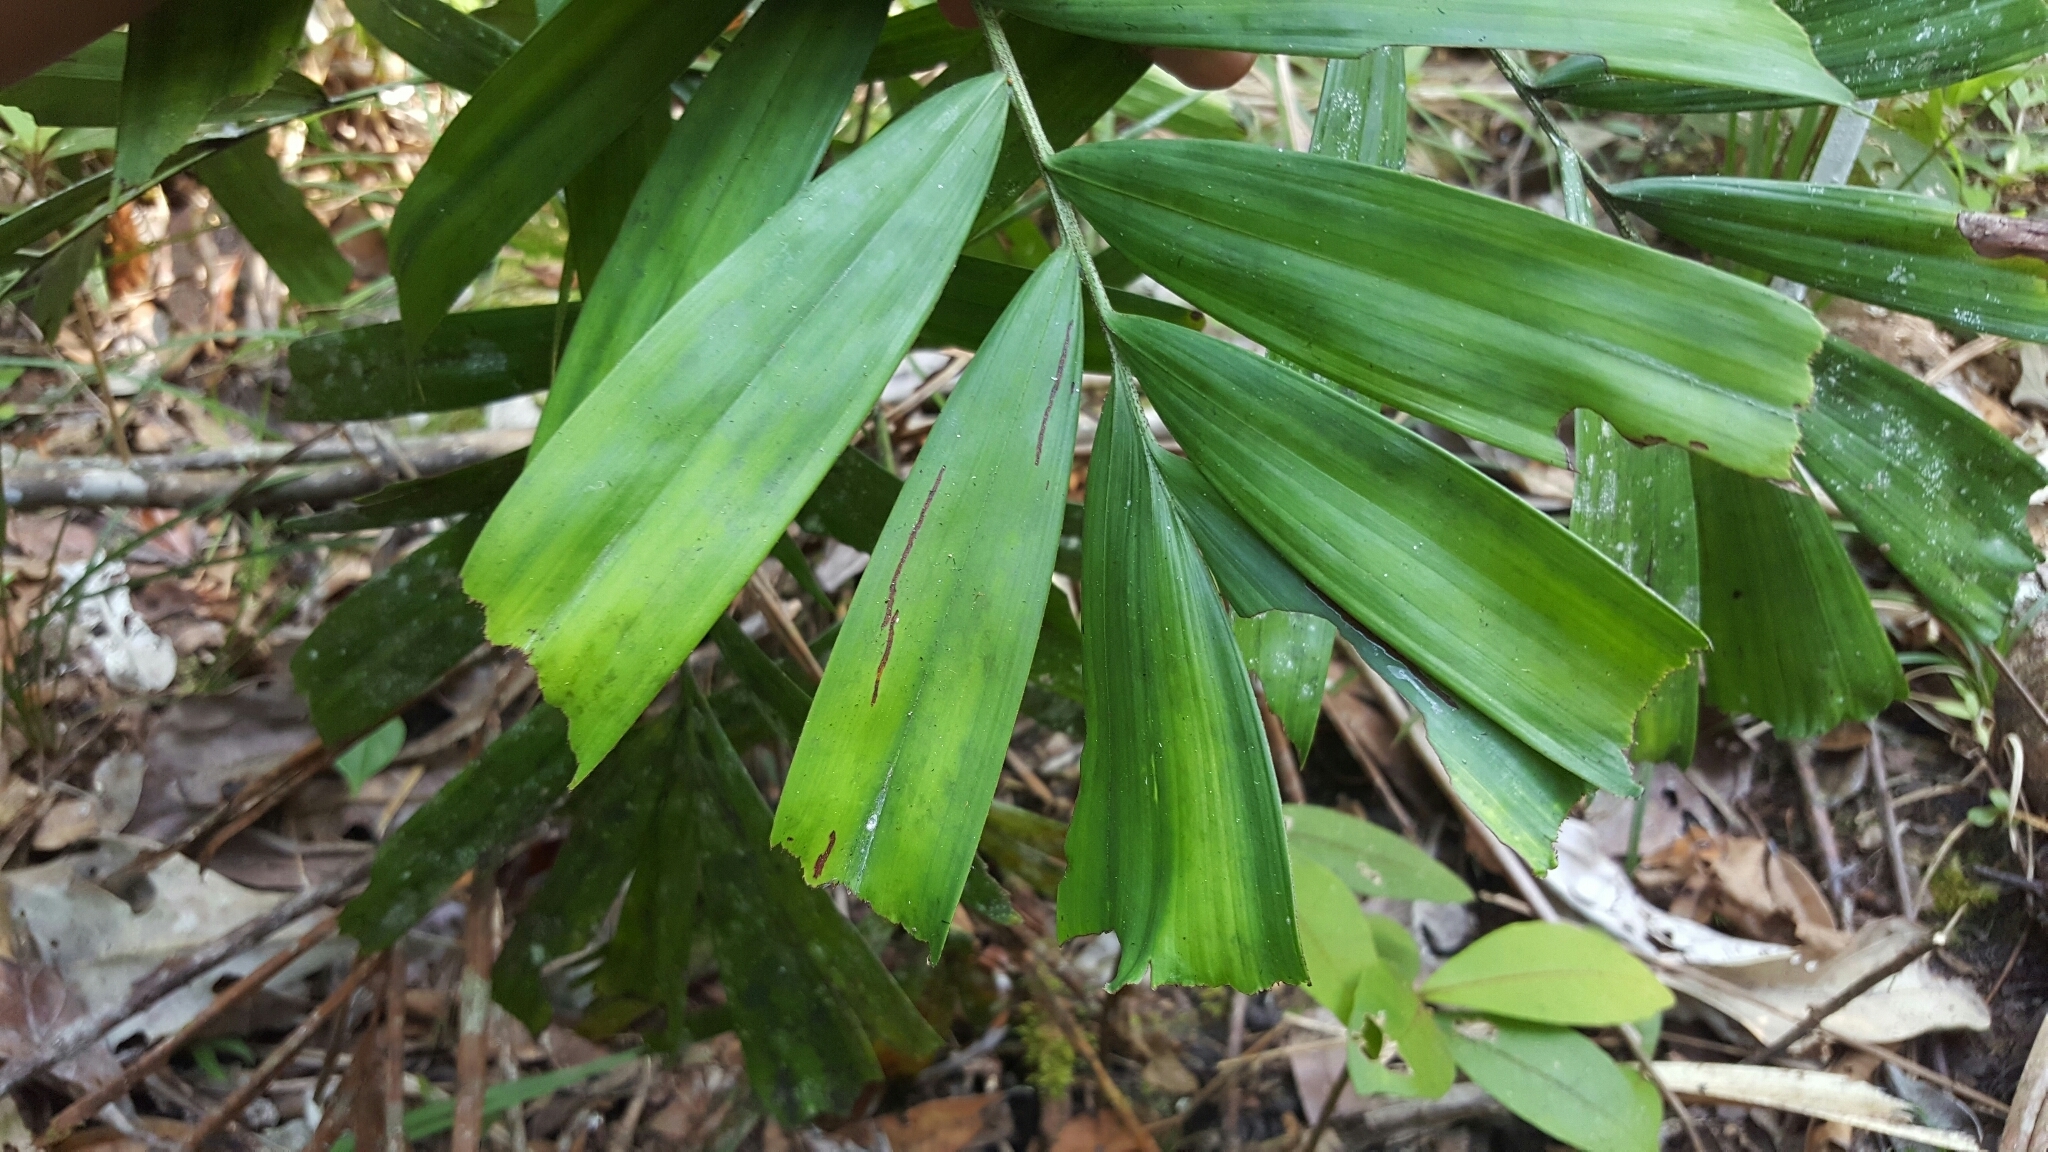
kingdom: Plantae
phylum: Tracheophyta
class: Liliopsida
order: Arecales
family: Arecaceae
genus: Dypsis
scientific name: Dypsis gronophyllum
